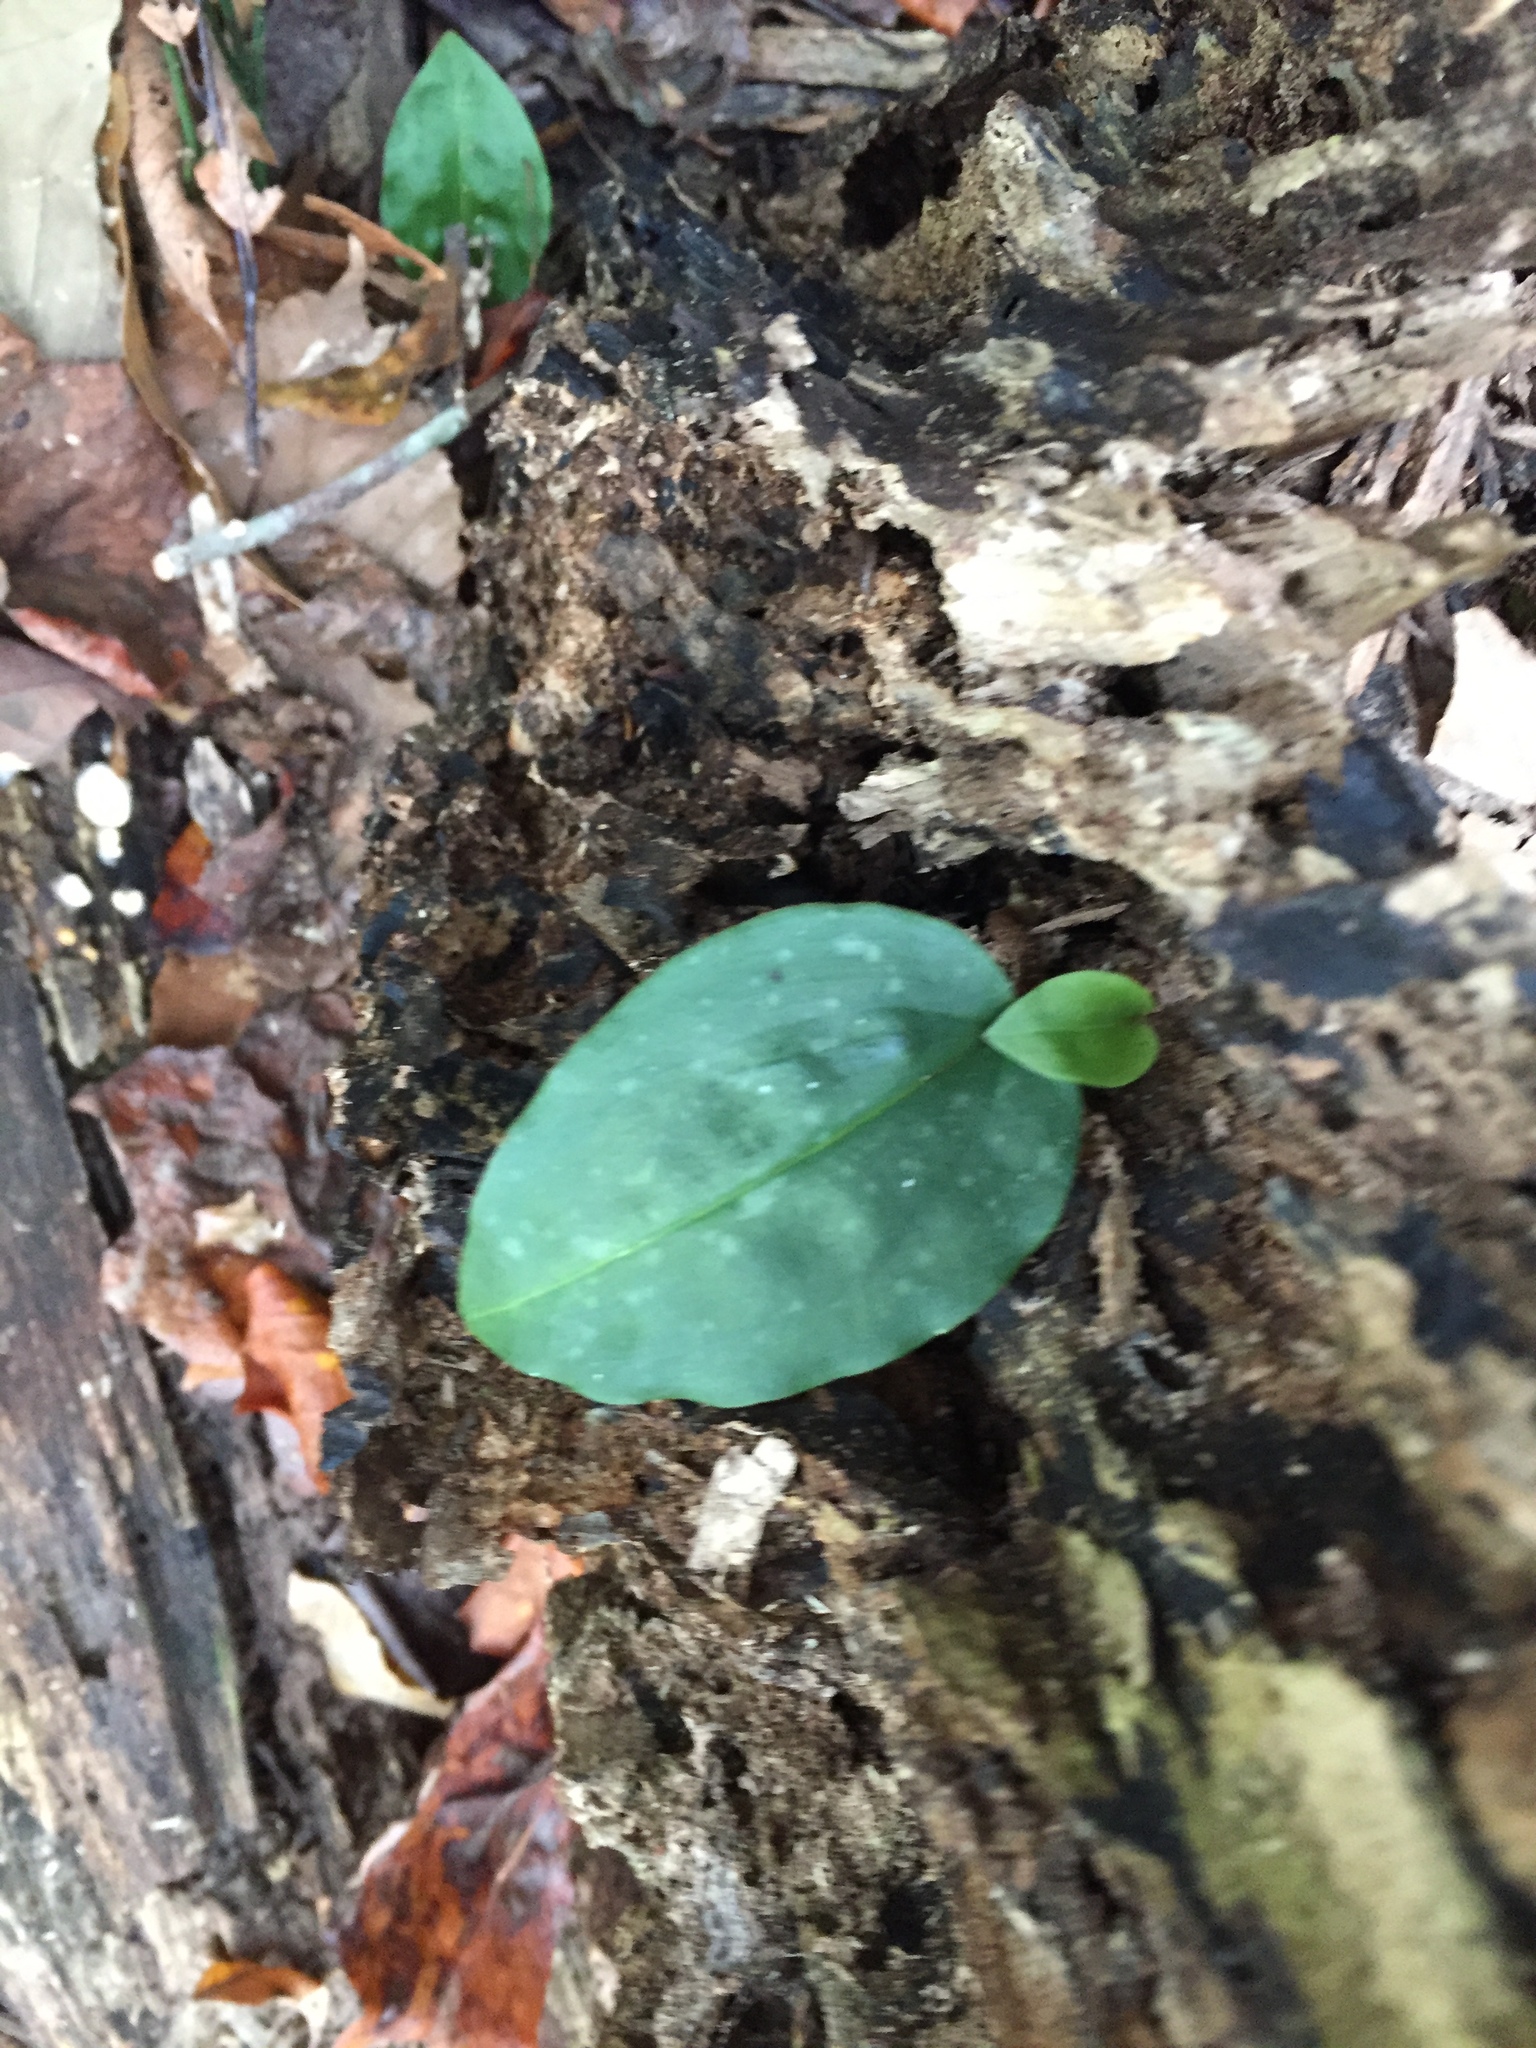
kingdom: Plantae
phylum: Tracheophyta
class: Liliopsida
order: Asparagales
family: Orchidaceae
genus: Tipularia
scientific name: Tipularia discolor
